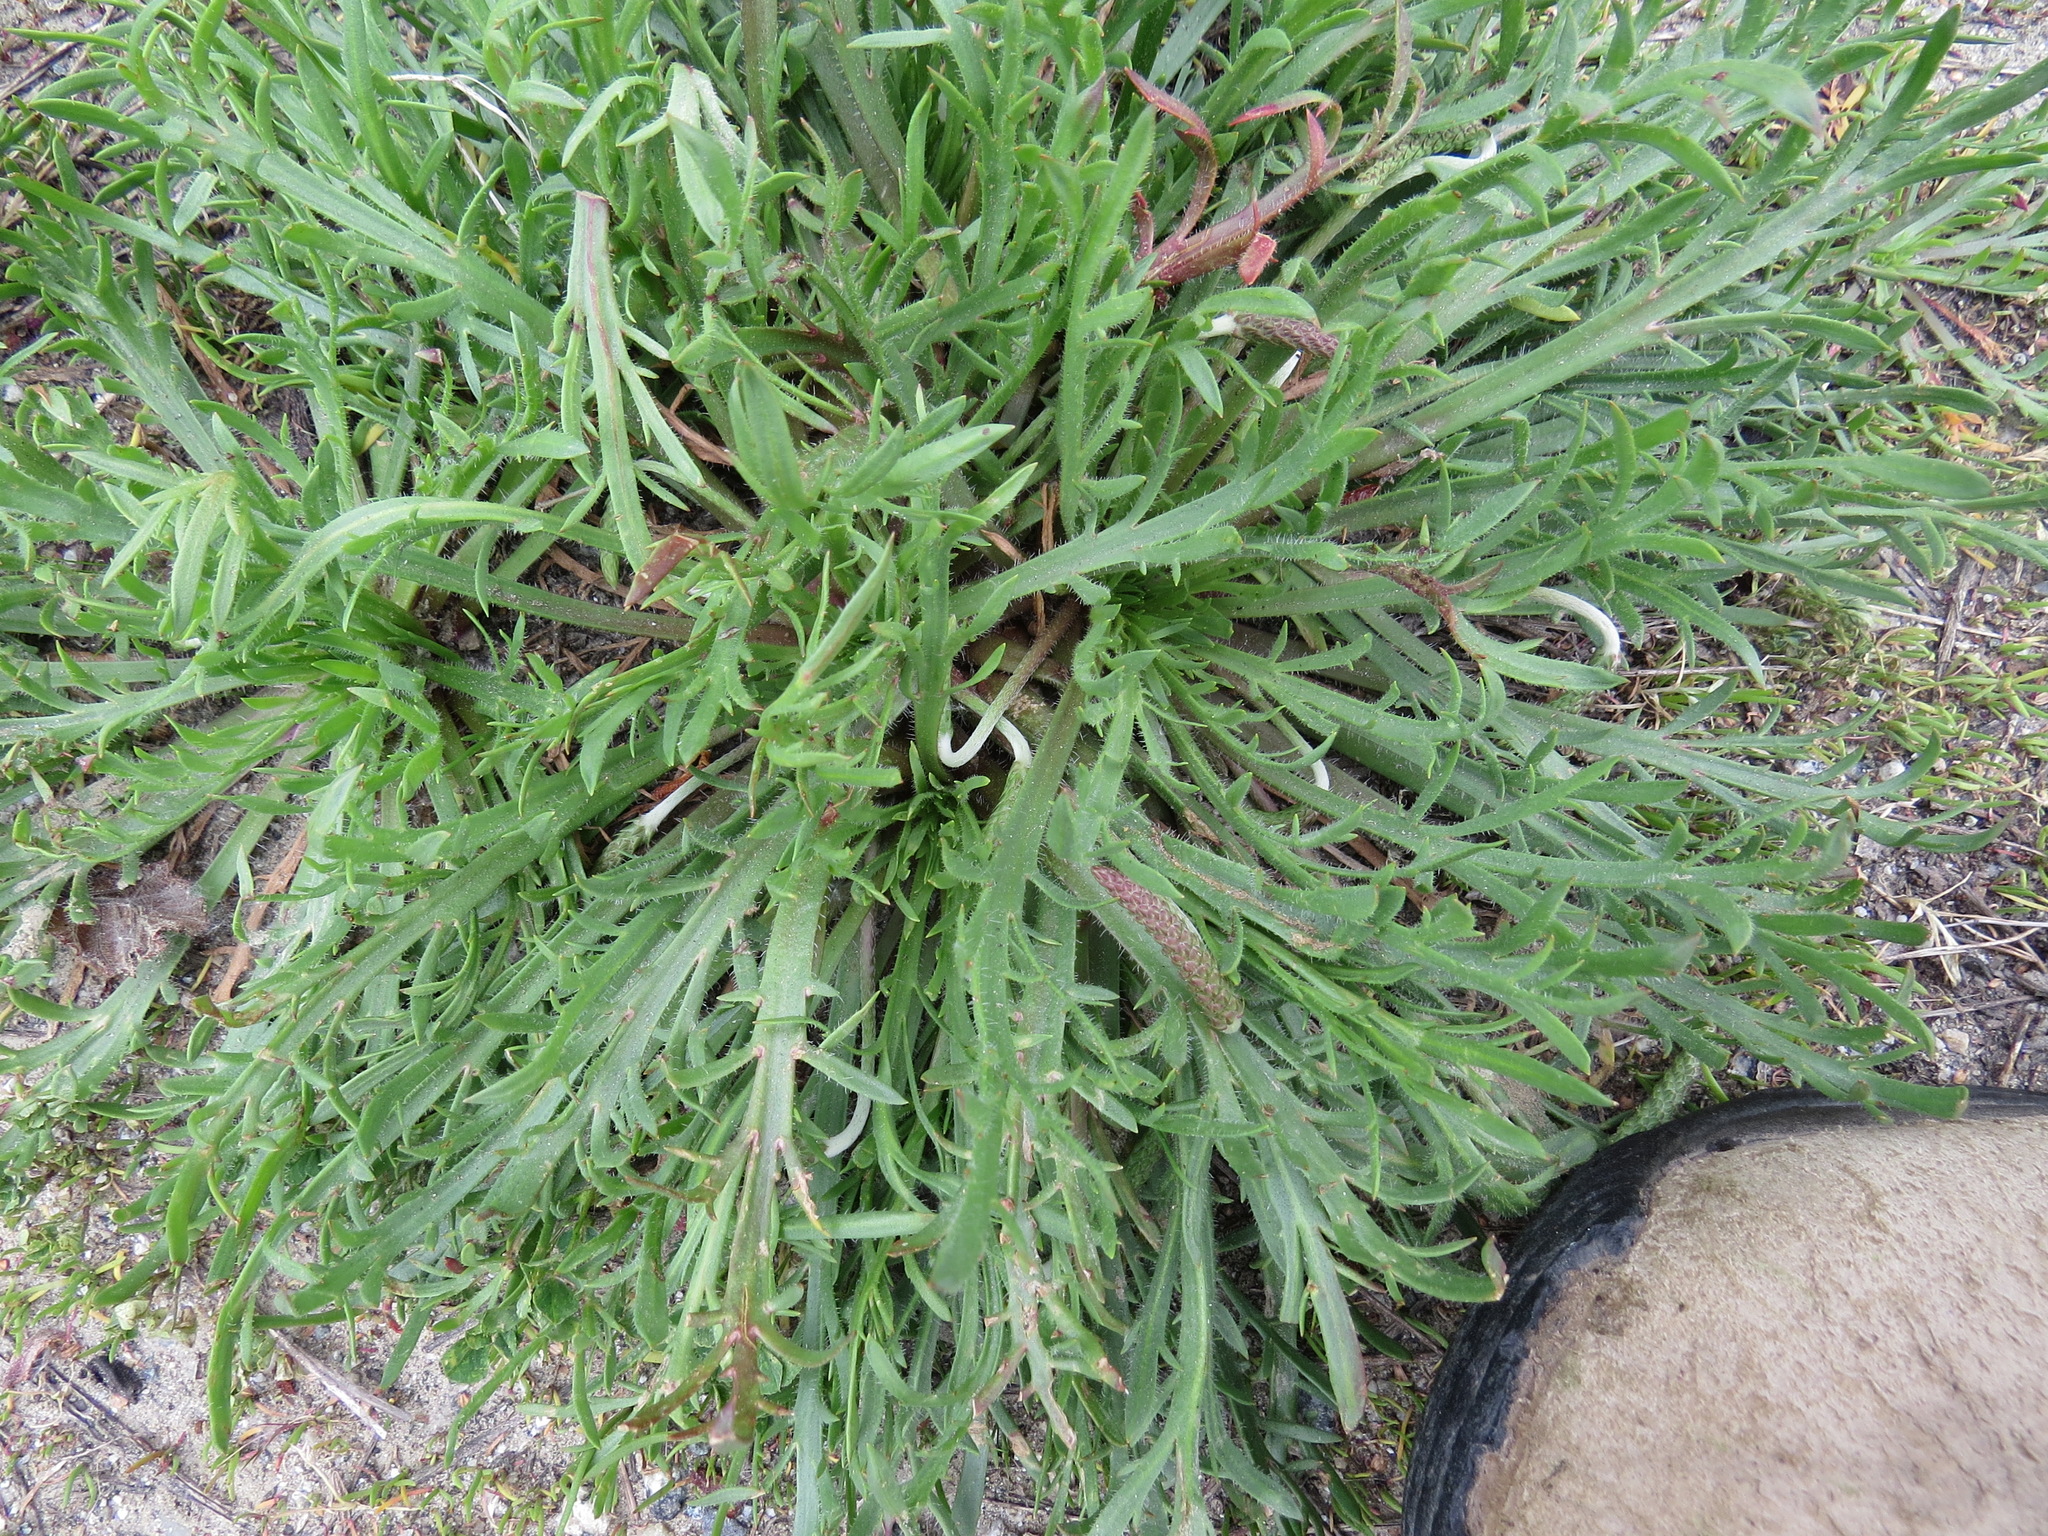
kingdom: Plantae
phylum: Tracheophyta
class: Magnoliopsida
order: Lamiales
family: Plantaginaceae
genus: Plantago
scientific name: Plantago coronopus
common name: Buck's-horn plantain
